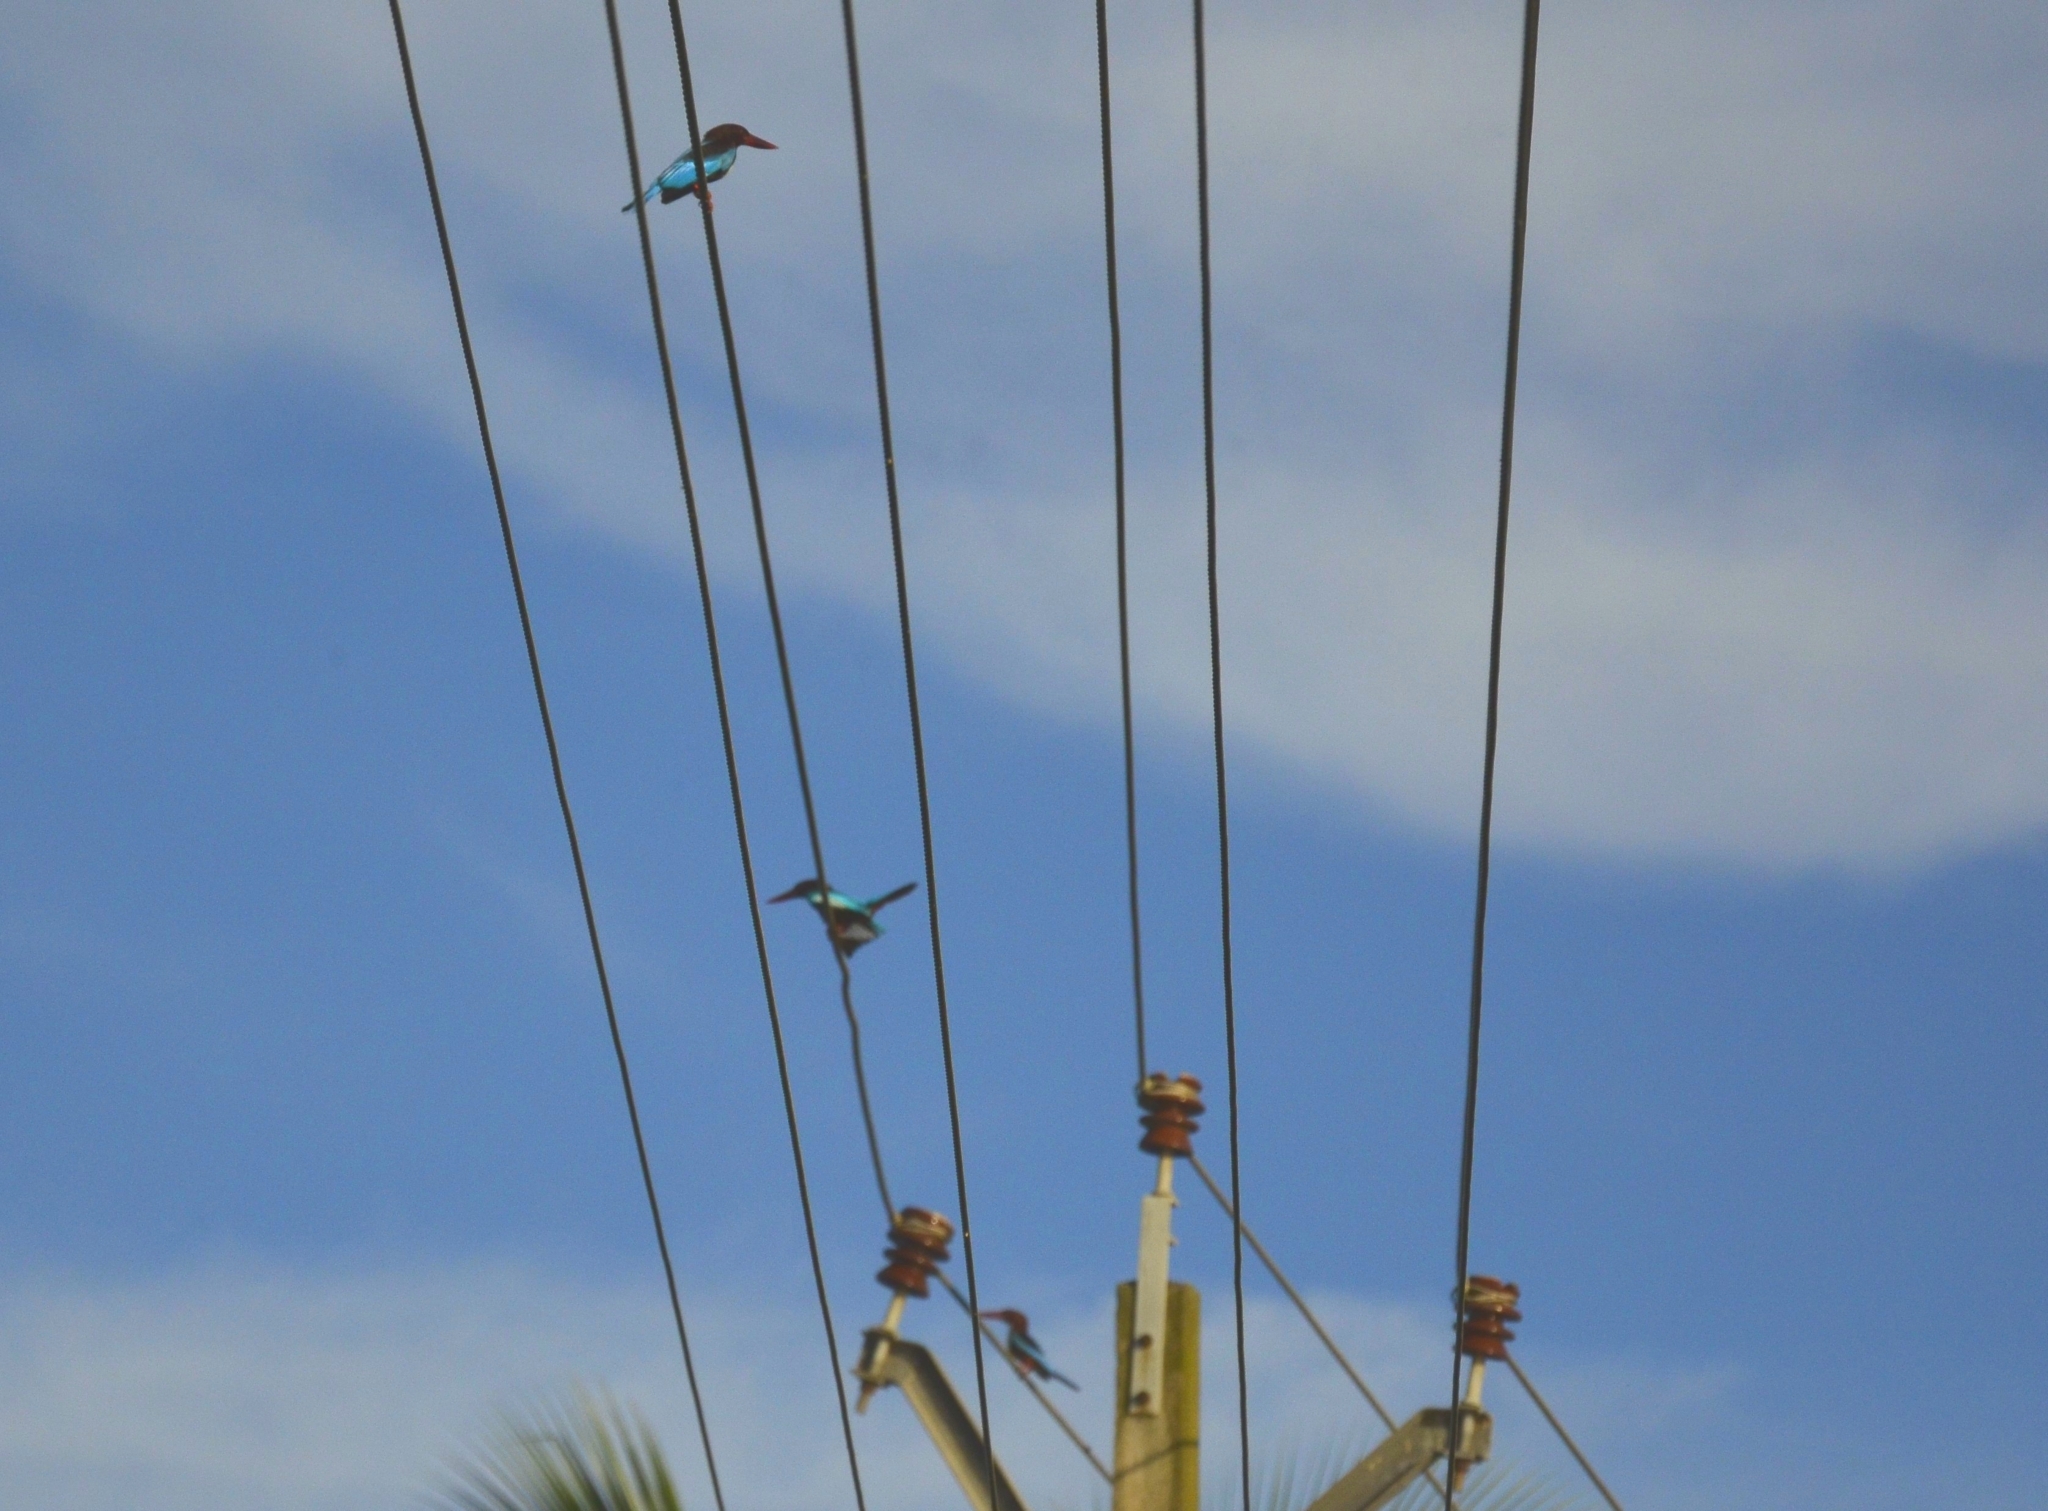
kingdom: Animalia
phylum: Chordata
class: Aves
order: Coraciiformes
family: Alcedinidae
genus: Halcyon
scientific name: Halcyon smyrnensis
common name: White-throated kingfisher
